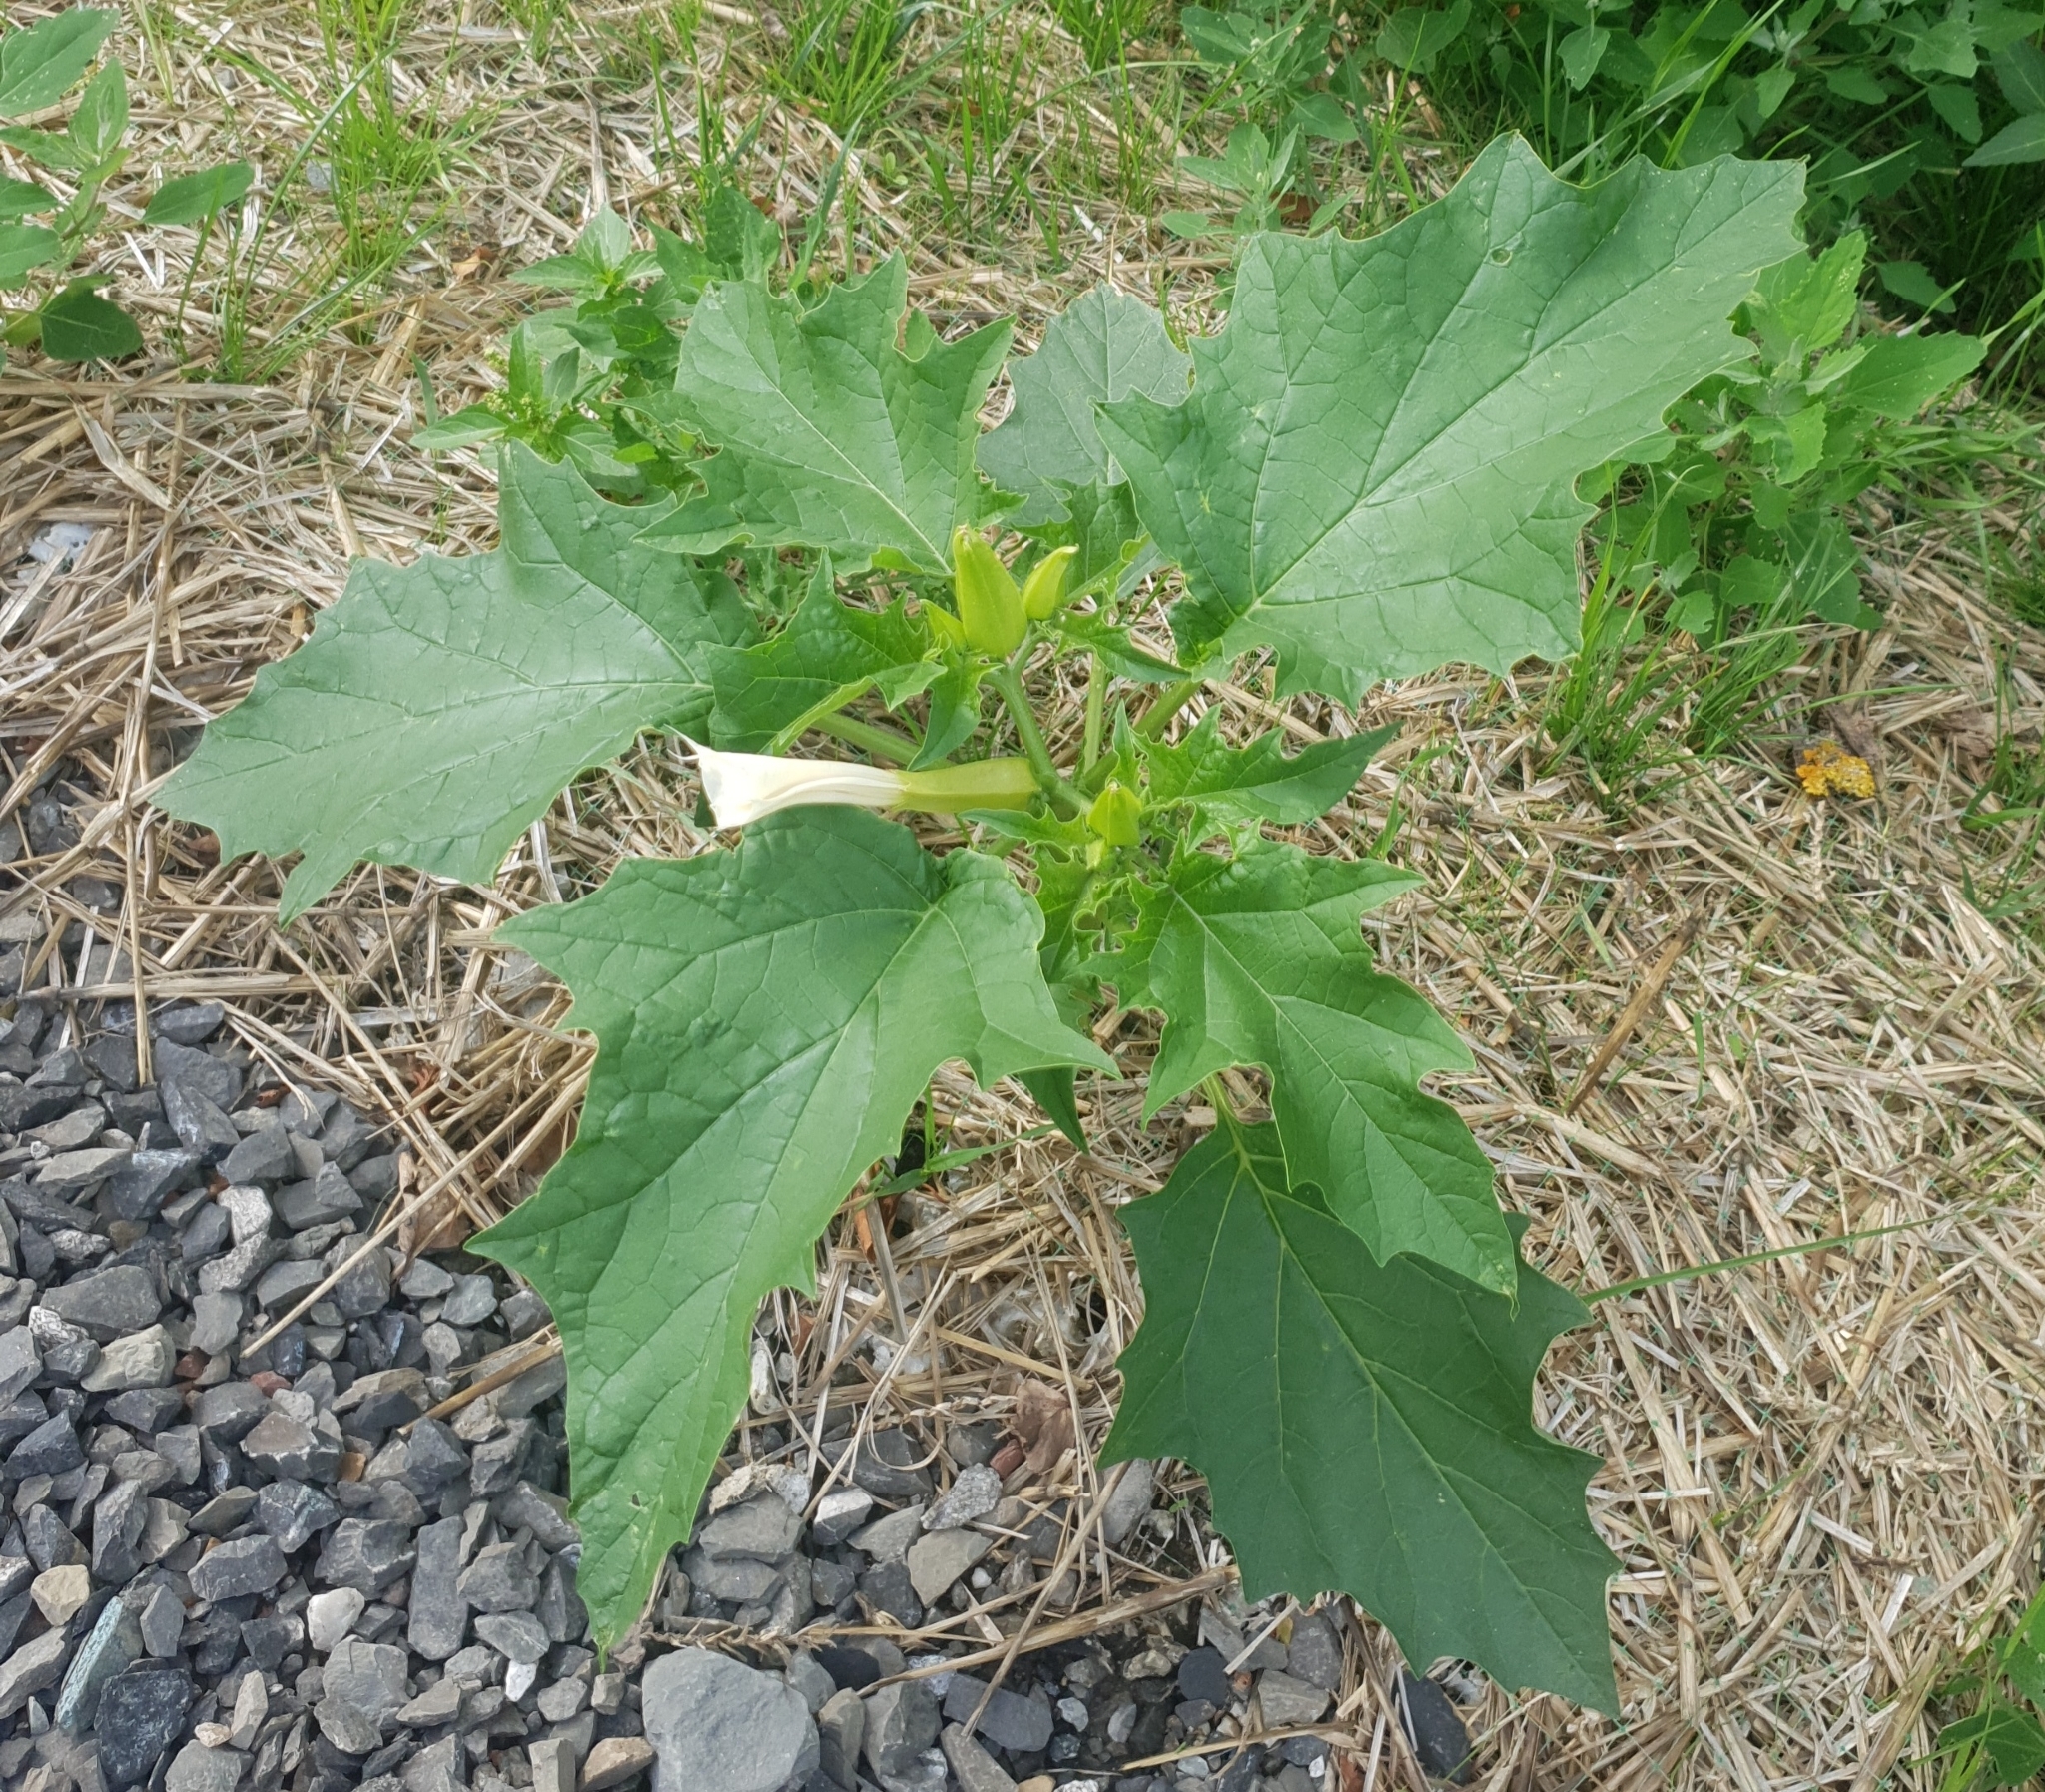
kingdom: Plantae
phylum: Tracheophyta
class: Magnoliopsida
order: Solanales
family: Solanaceae
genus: Datura
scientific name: Datura stramonium
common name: Thorn-apple
